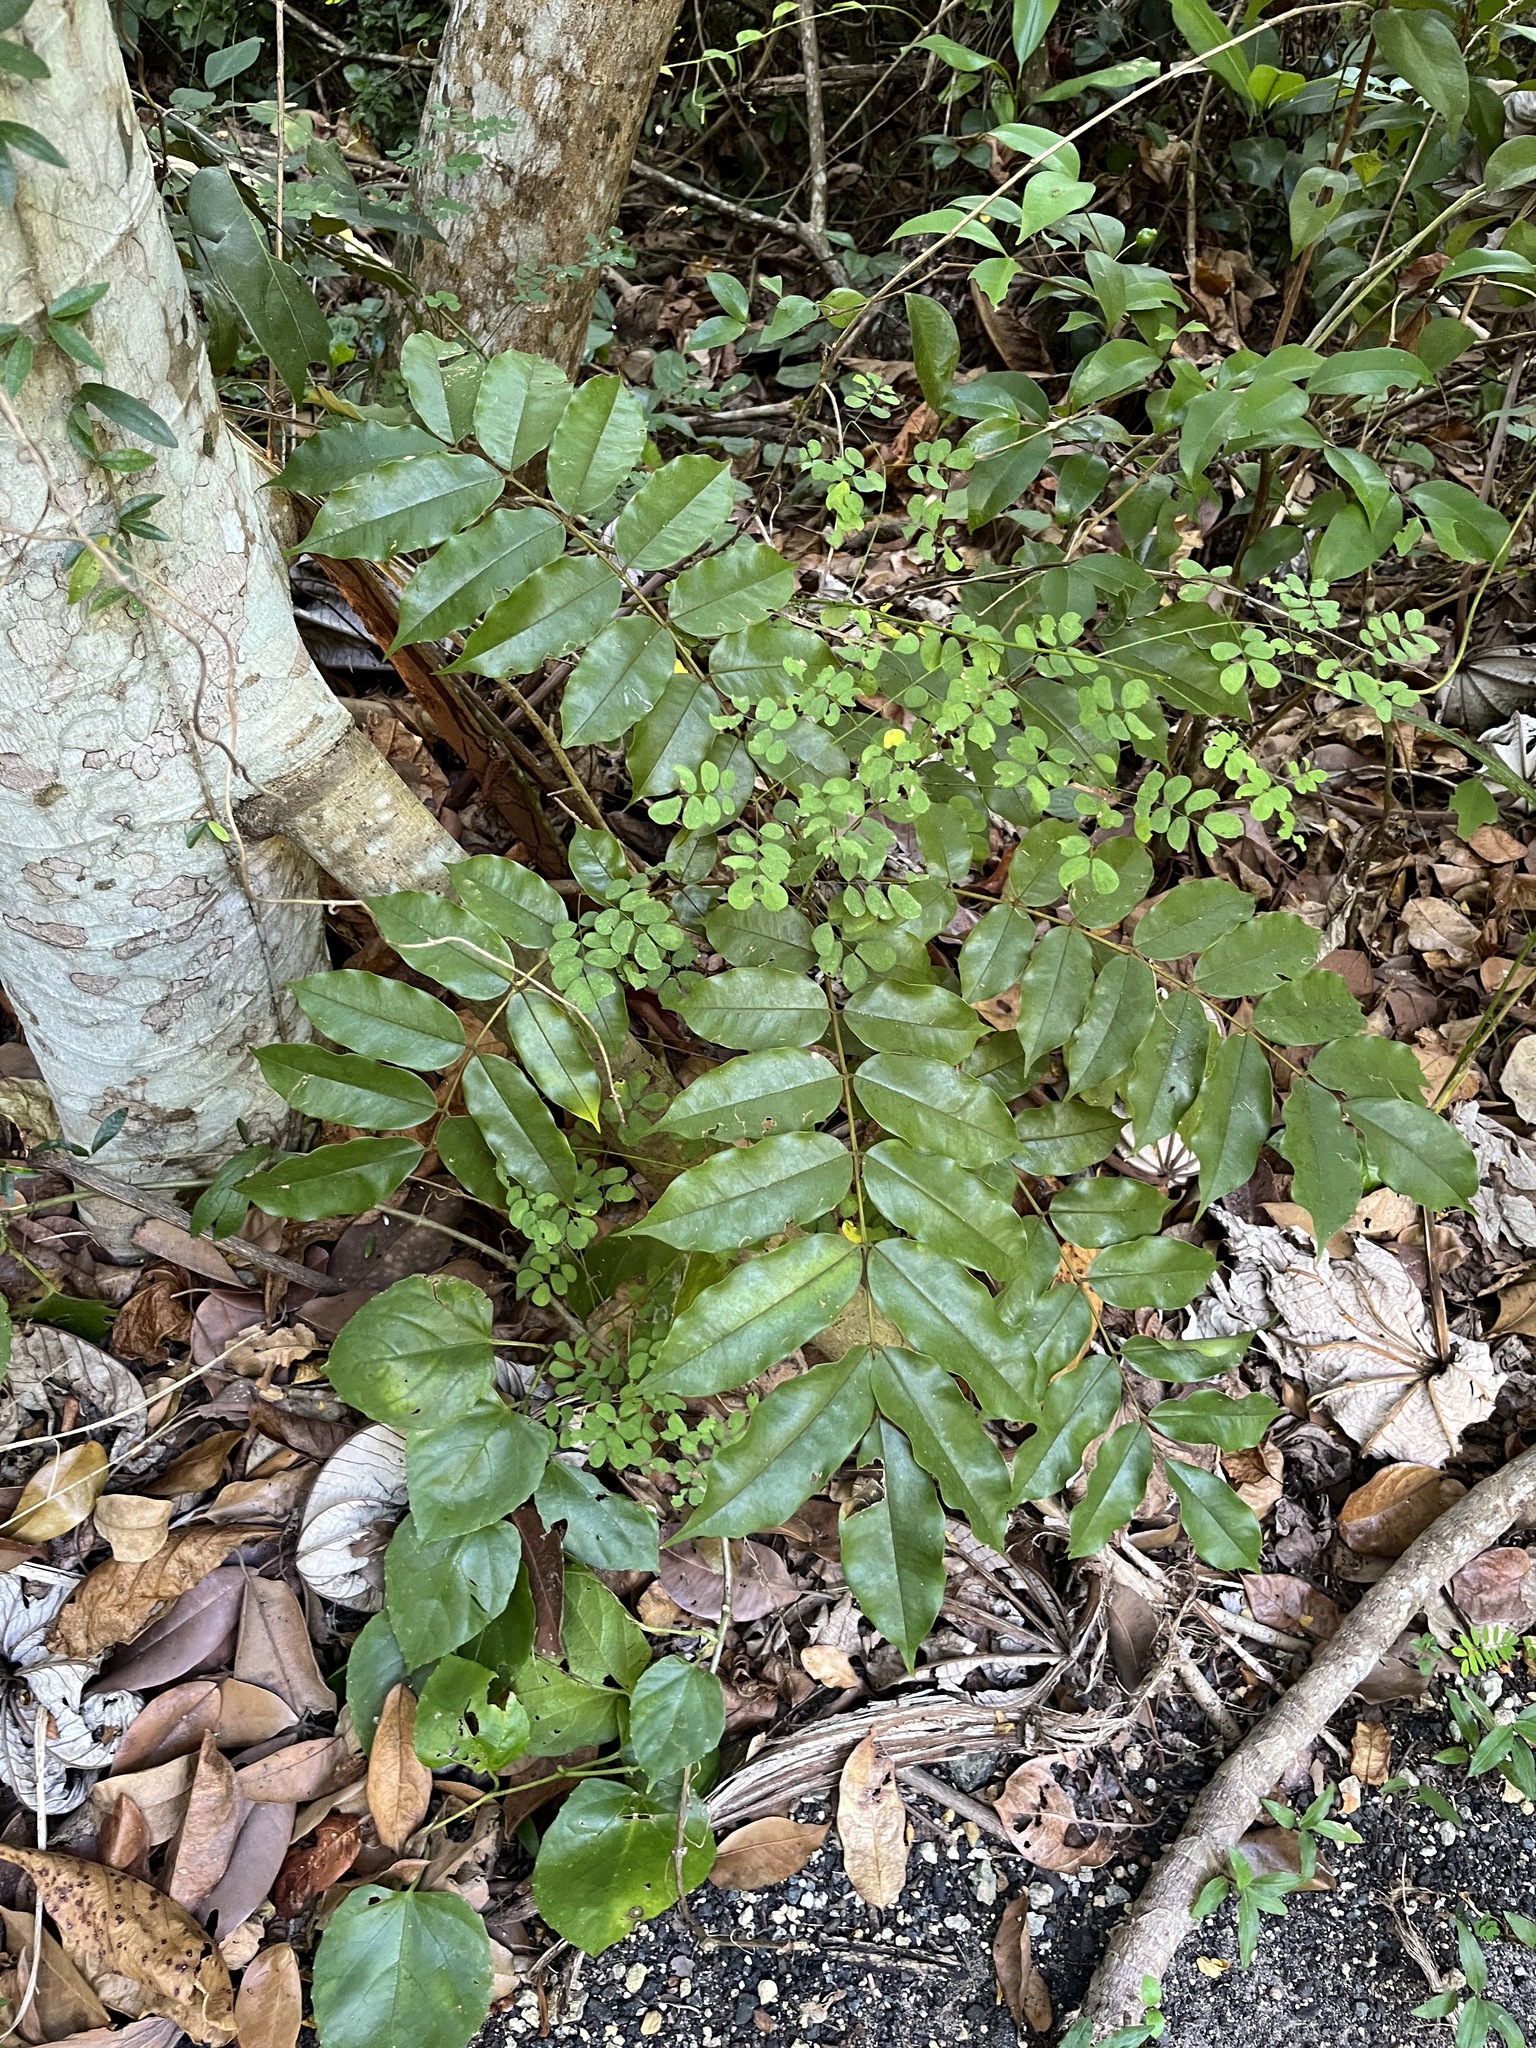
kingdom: Plantae
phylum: Tracheophyta
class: Magnoliopsida
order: Fabales
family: Fabaceae
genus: Andira
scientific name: Andira inermis
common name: Angelin
